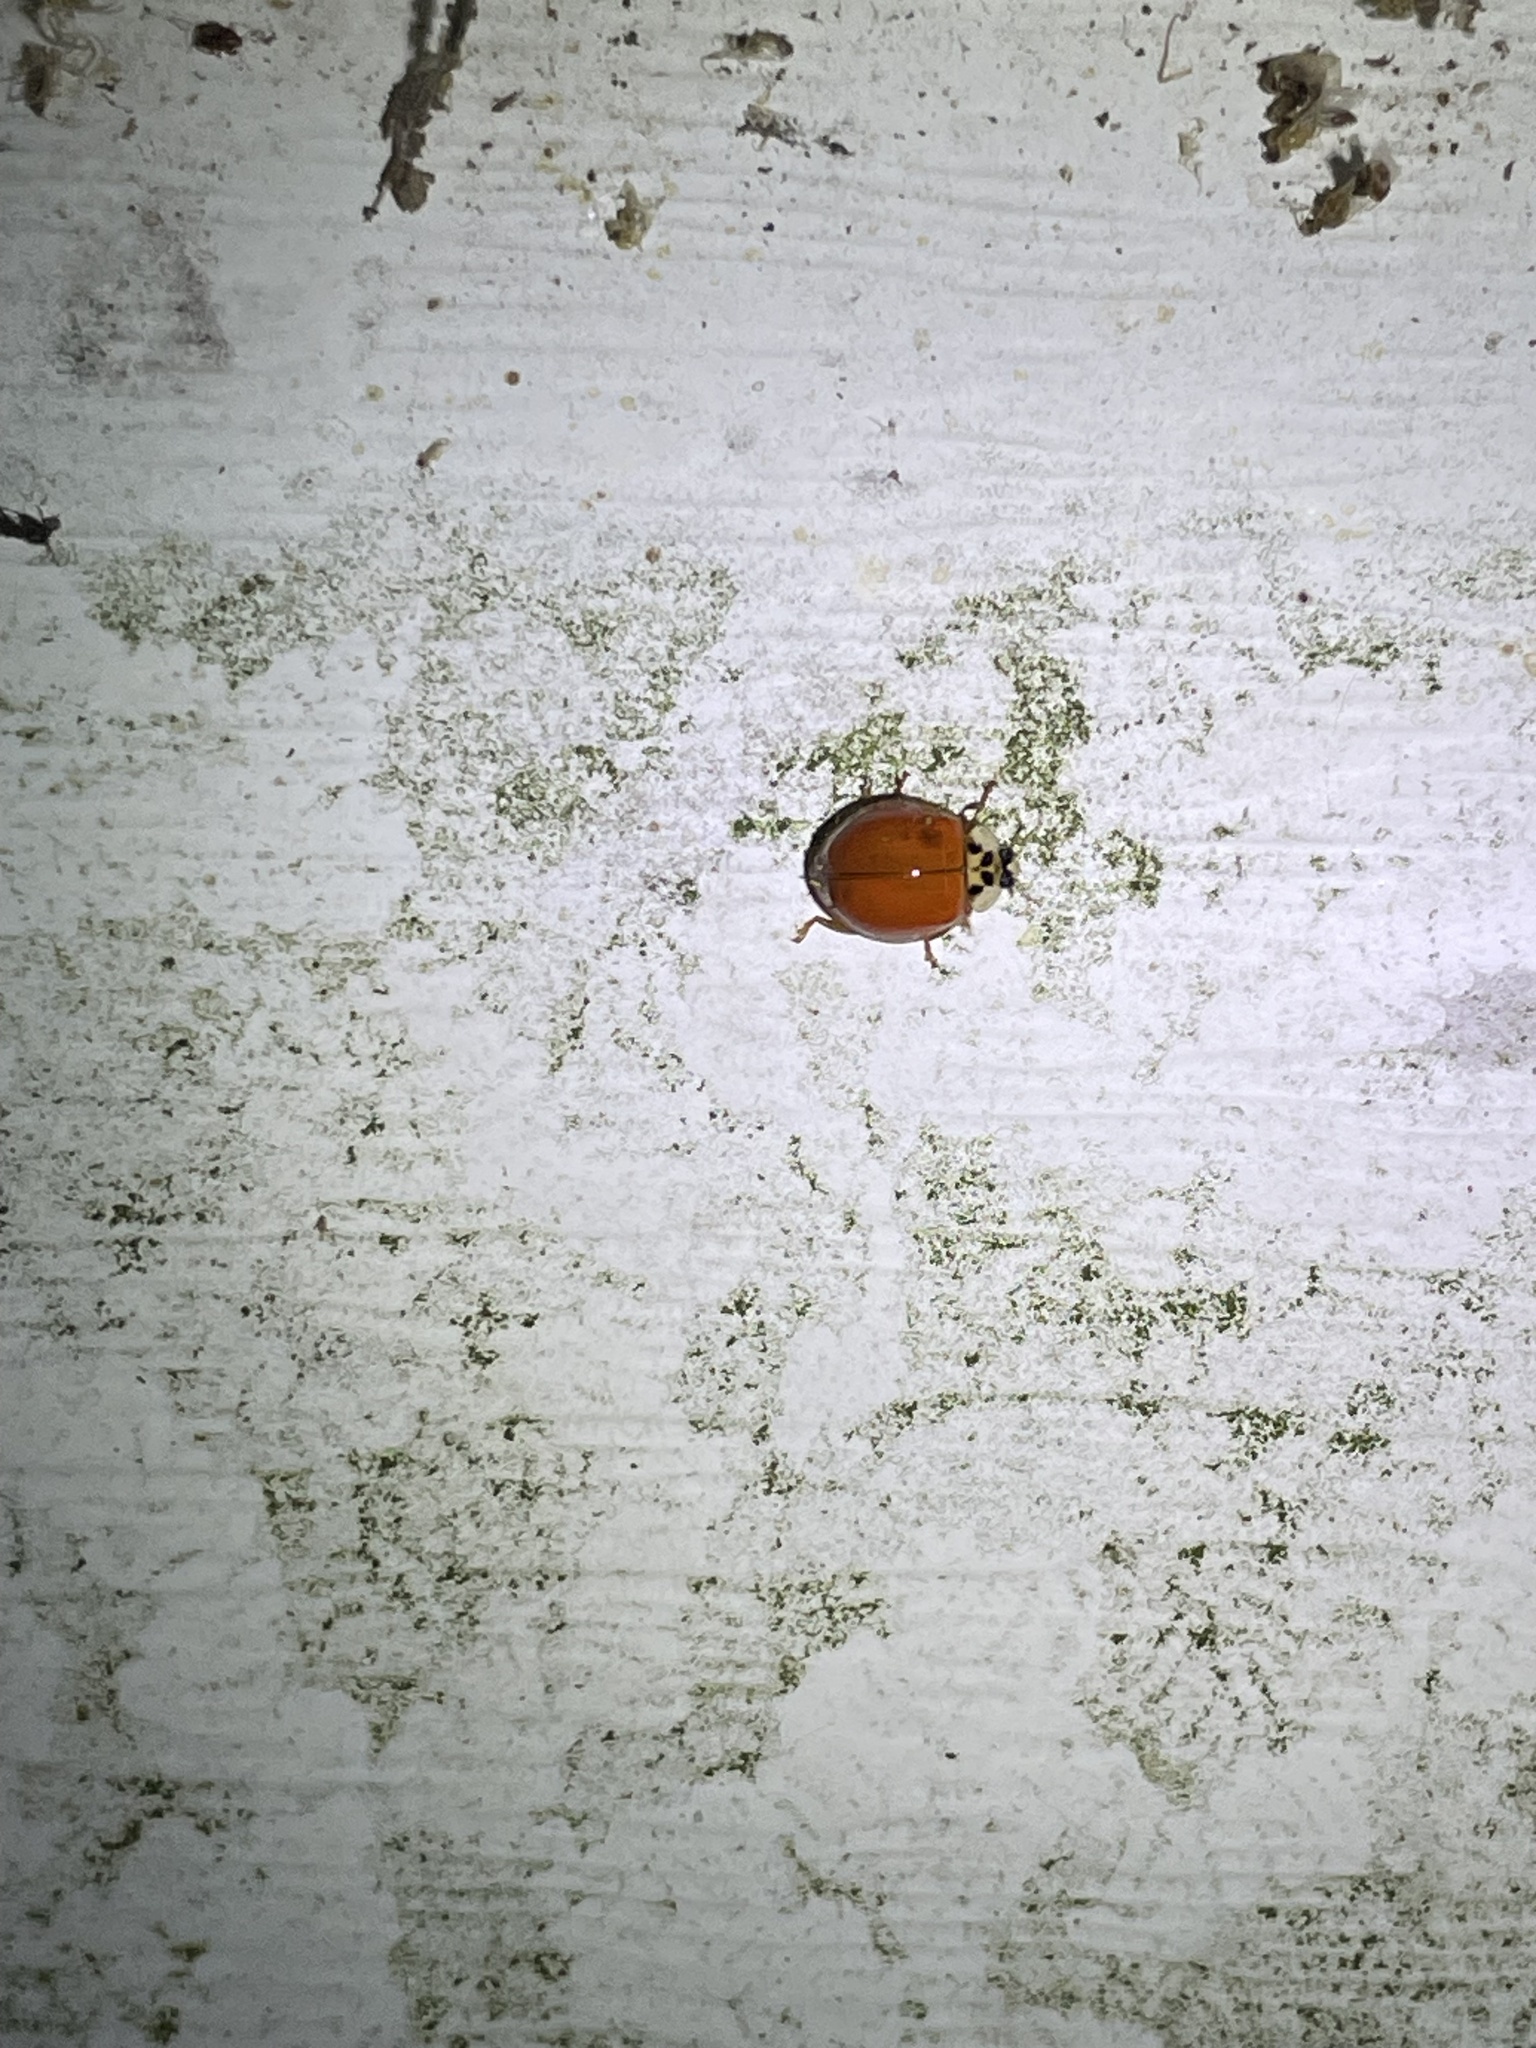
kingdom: Animalia
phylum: Arthropoda
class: Insecta
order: Coleoptera
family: Coccinellidae
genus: Harmonia
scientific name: Harmonia axyridis
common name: Harlequin ladybird
